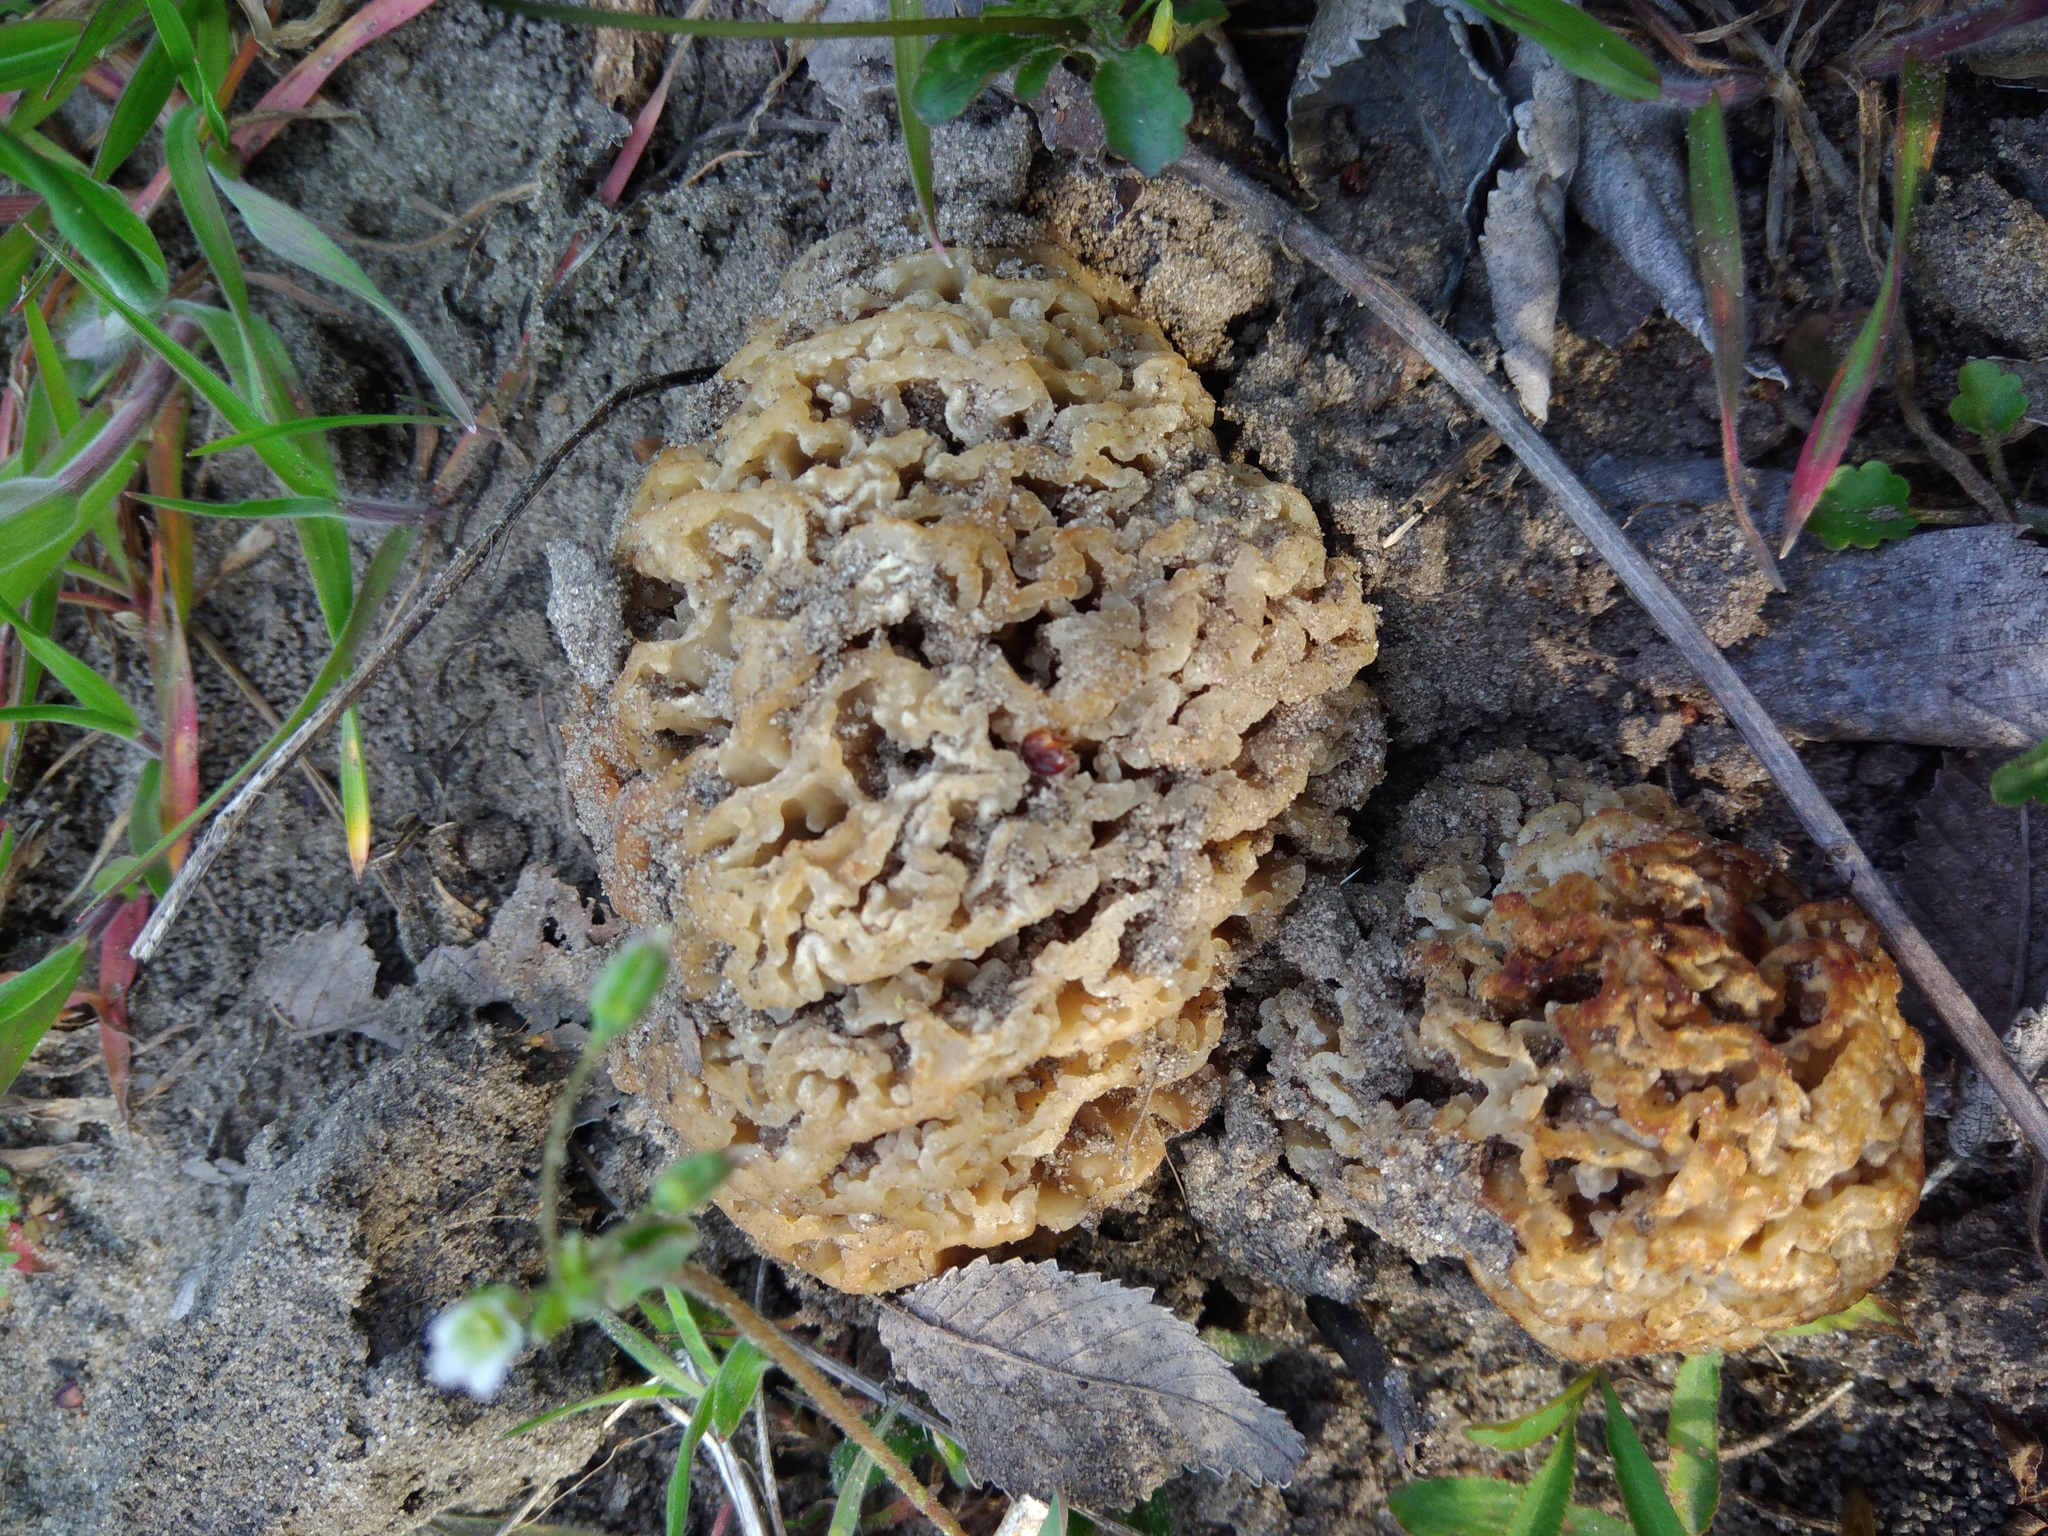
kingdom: Fungi
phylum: Ascomycota
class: Pezizomycetes
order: Pezizales
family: Morchellaceae
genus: Morchella
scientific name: Morchella steppicola
